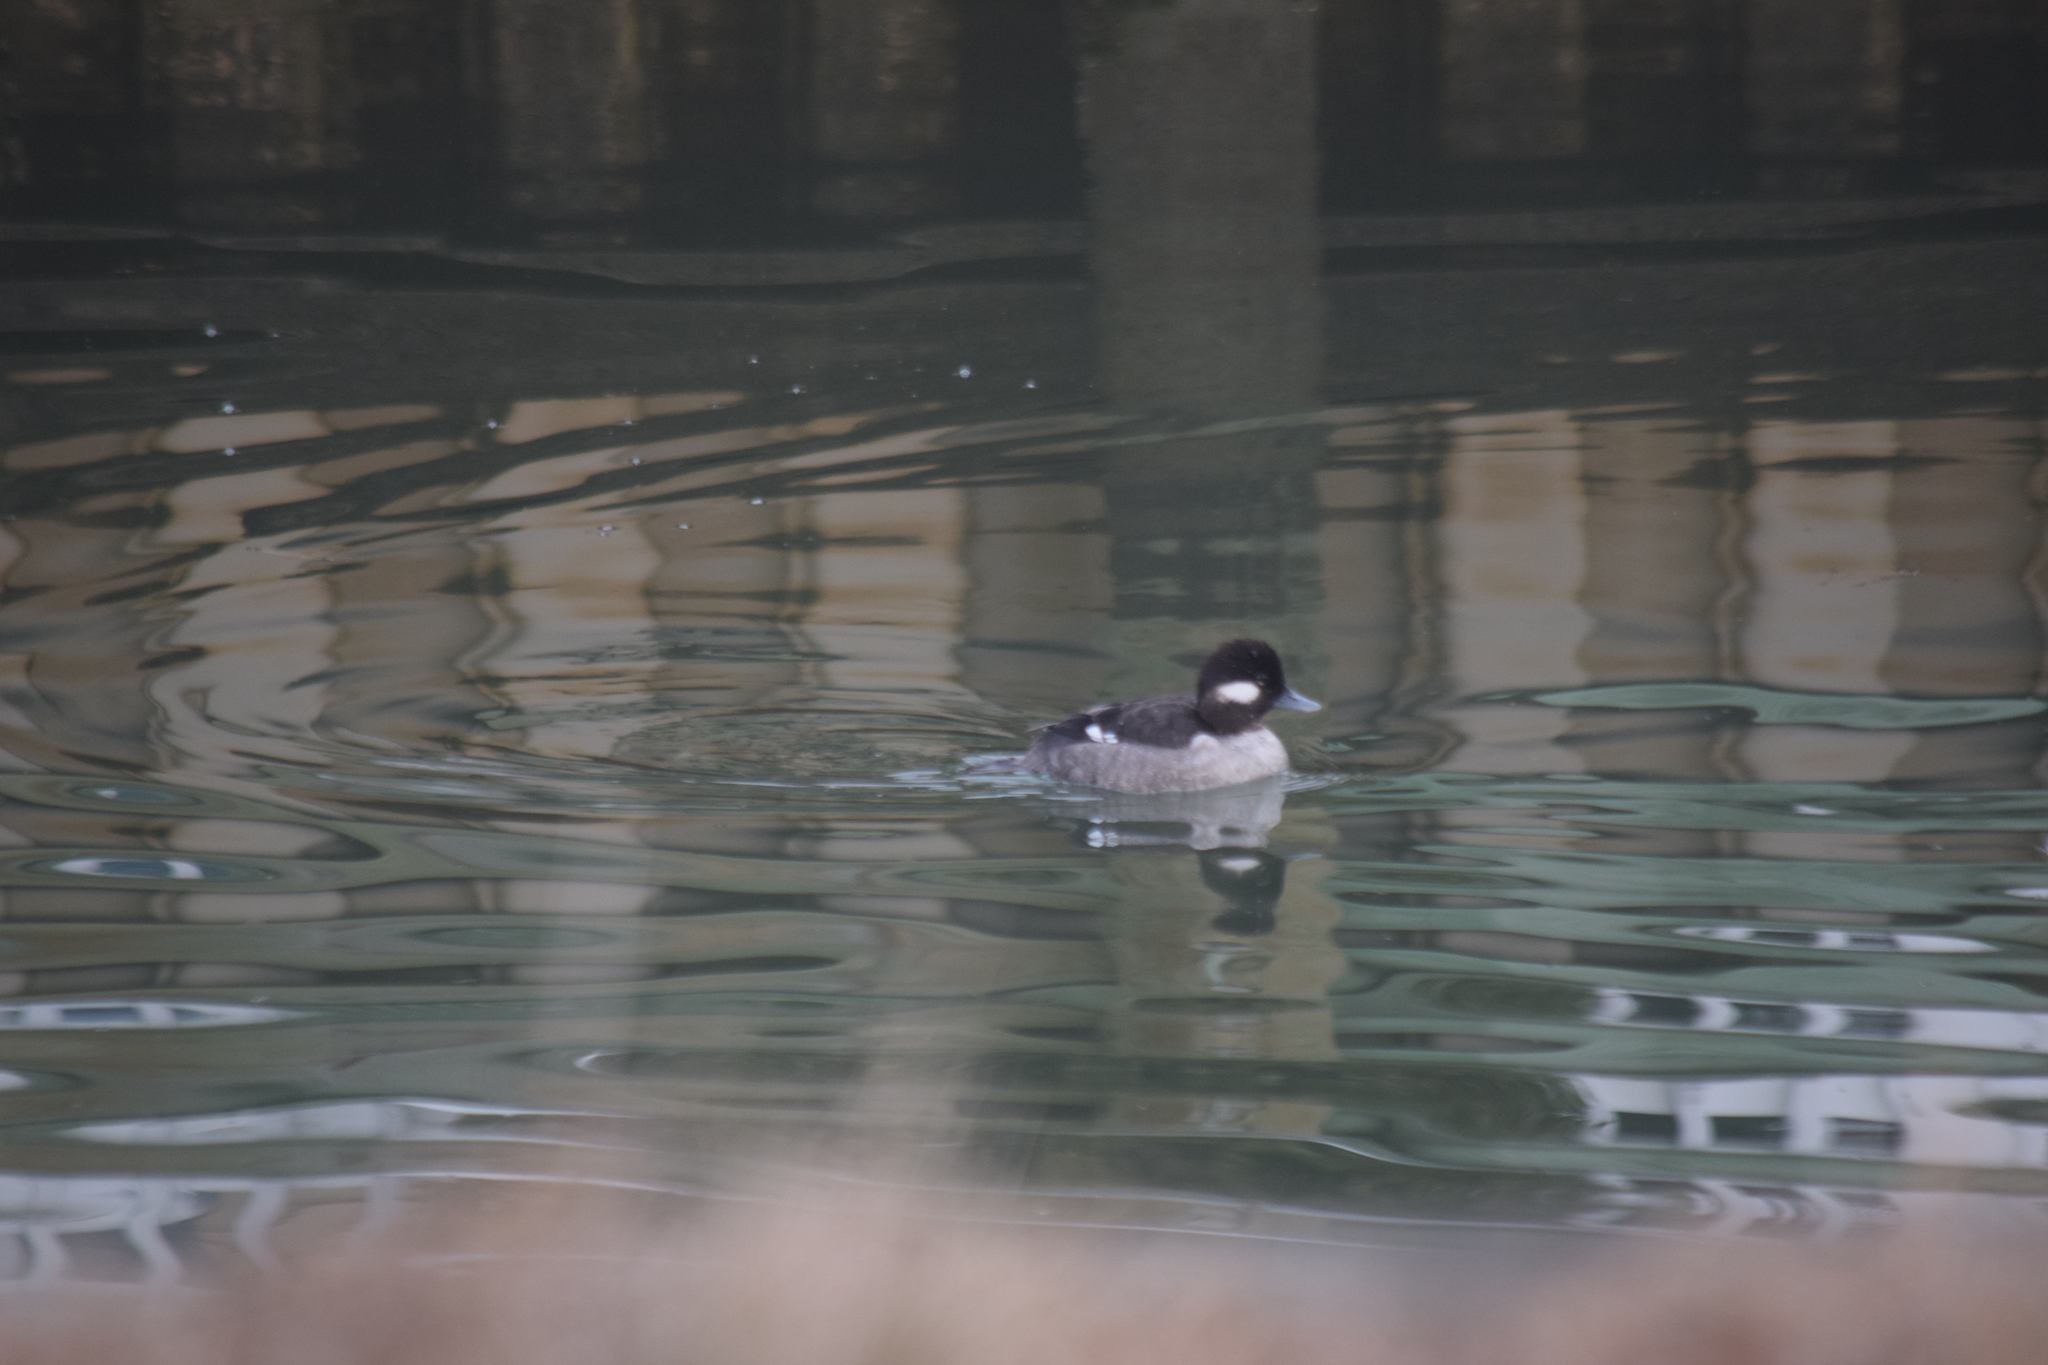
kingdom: Animalia
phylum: Chordata
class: Aves
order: Anseriformes
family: Anatidae
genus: Bucephala
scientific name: Bucephala albeola
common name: Bufflehead
